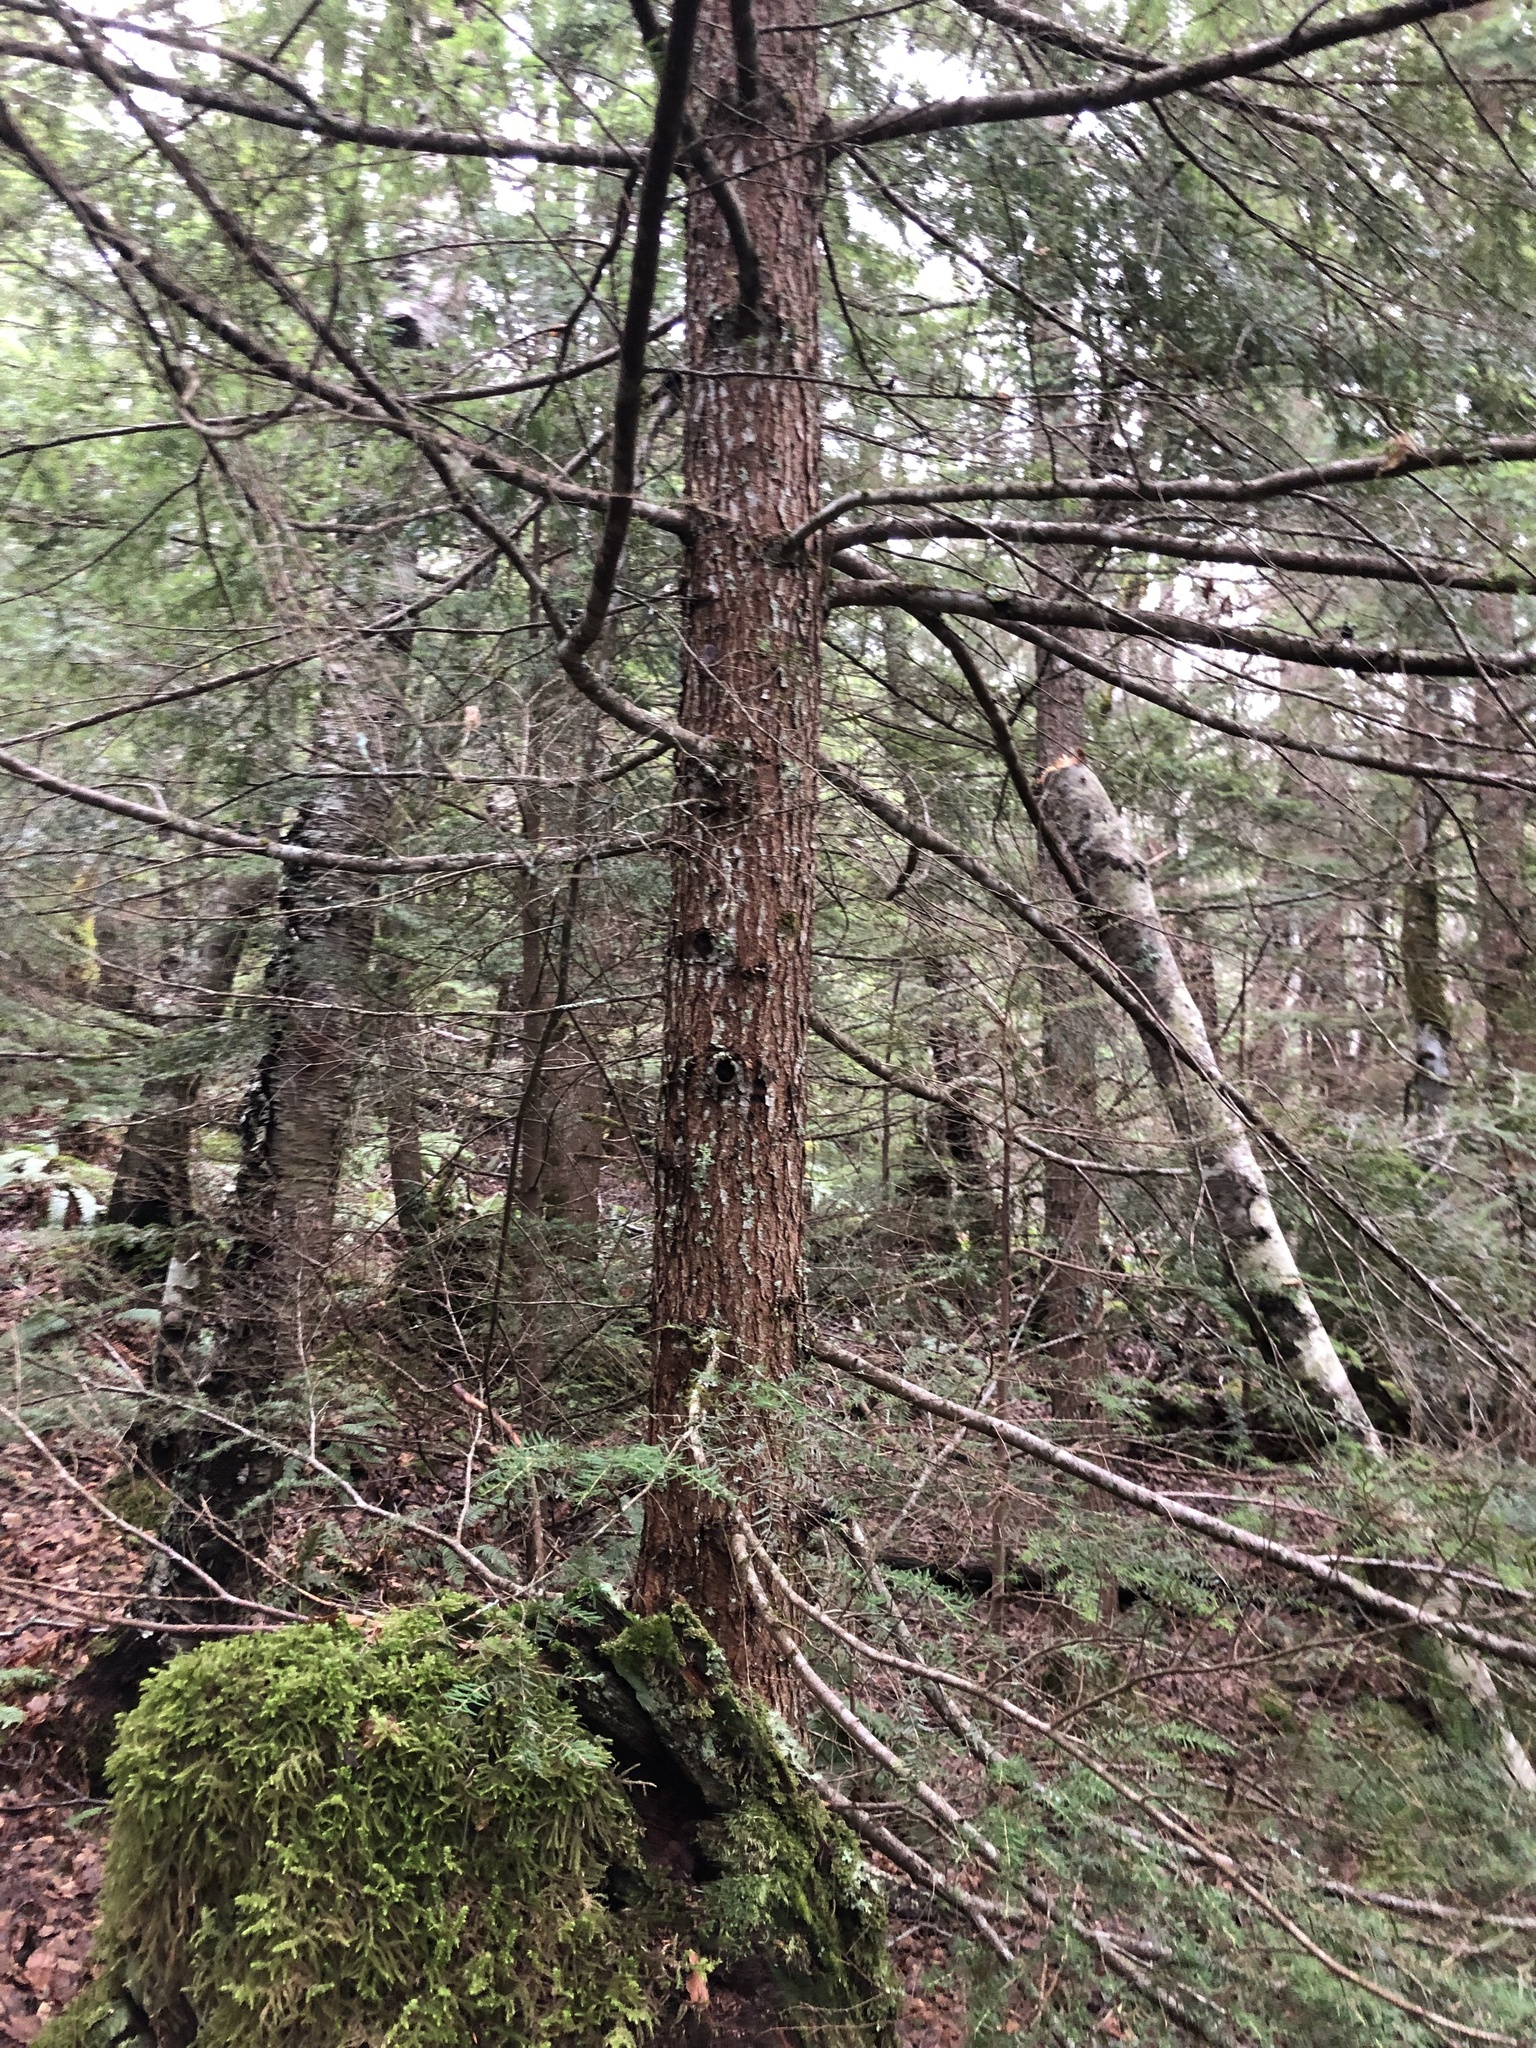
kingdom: Plantae
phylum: Tracheophyta
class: Pinopsida
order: Pinales
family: Pinaceae
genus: Tsuga
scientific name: Tsuga heterophylla
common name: Western hemlock
